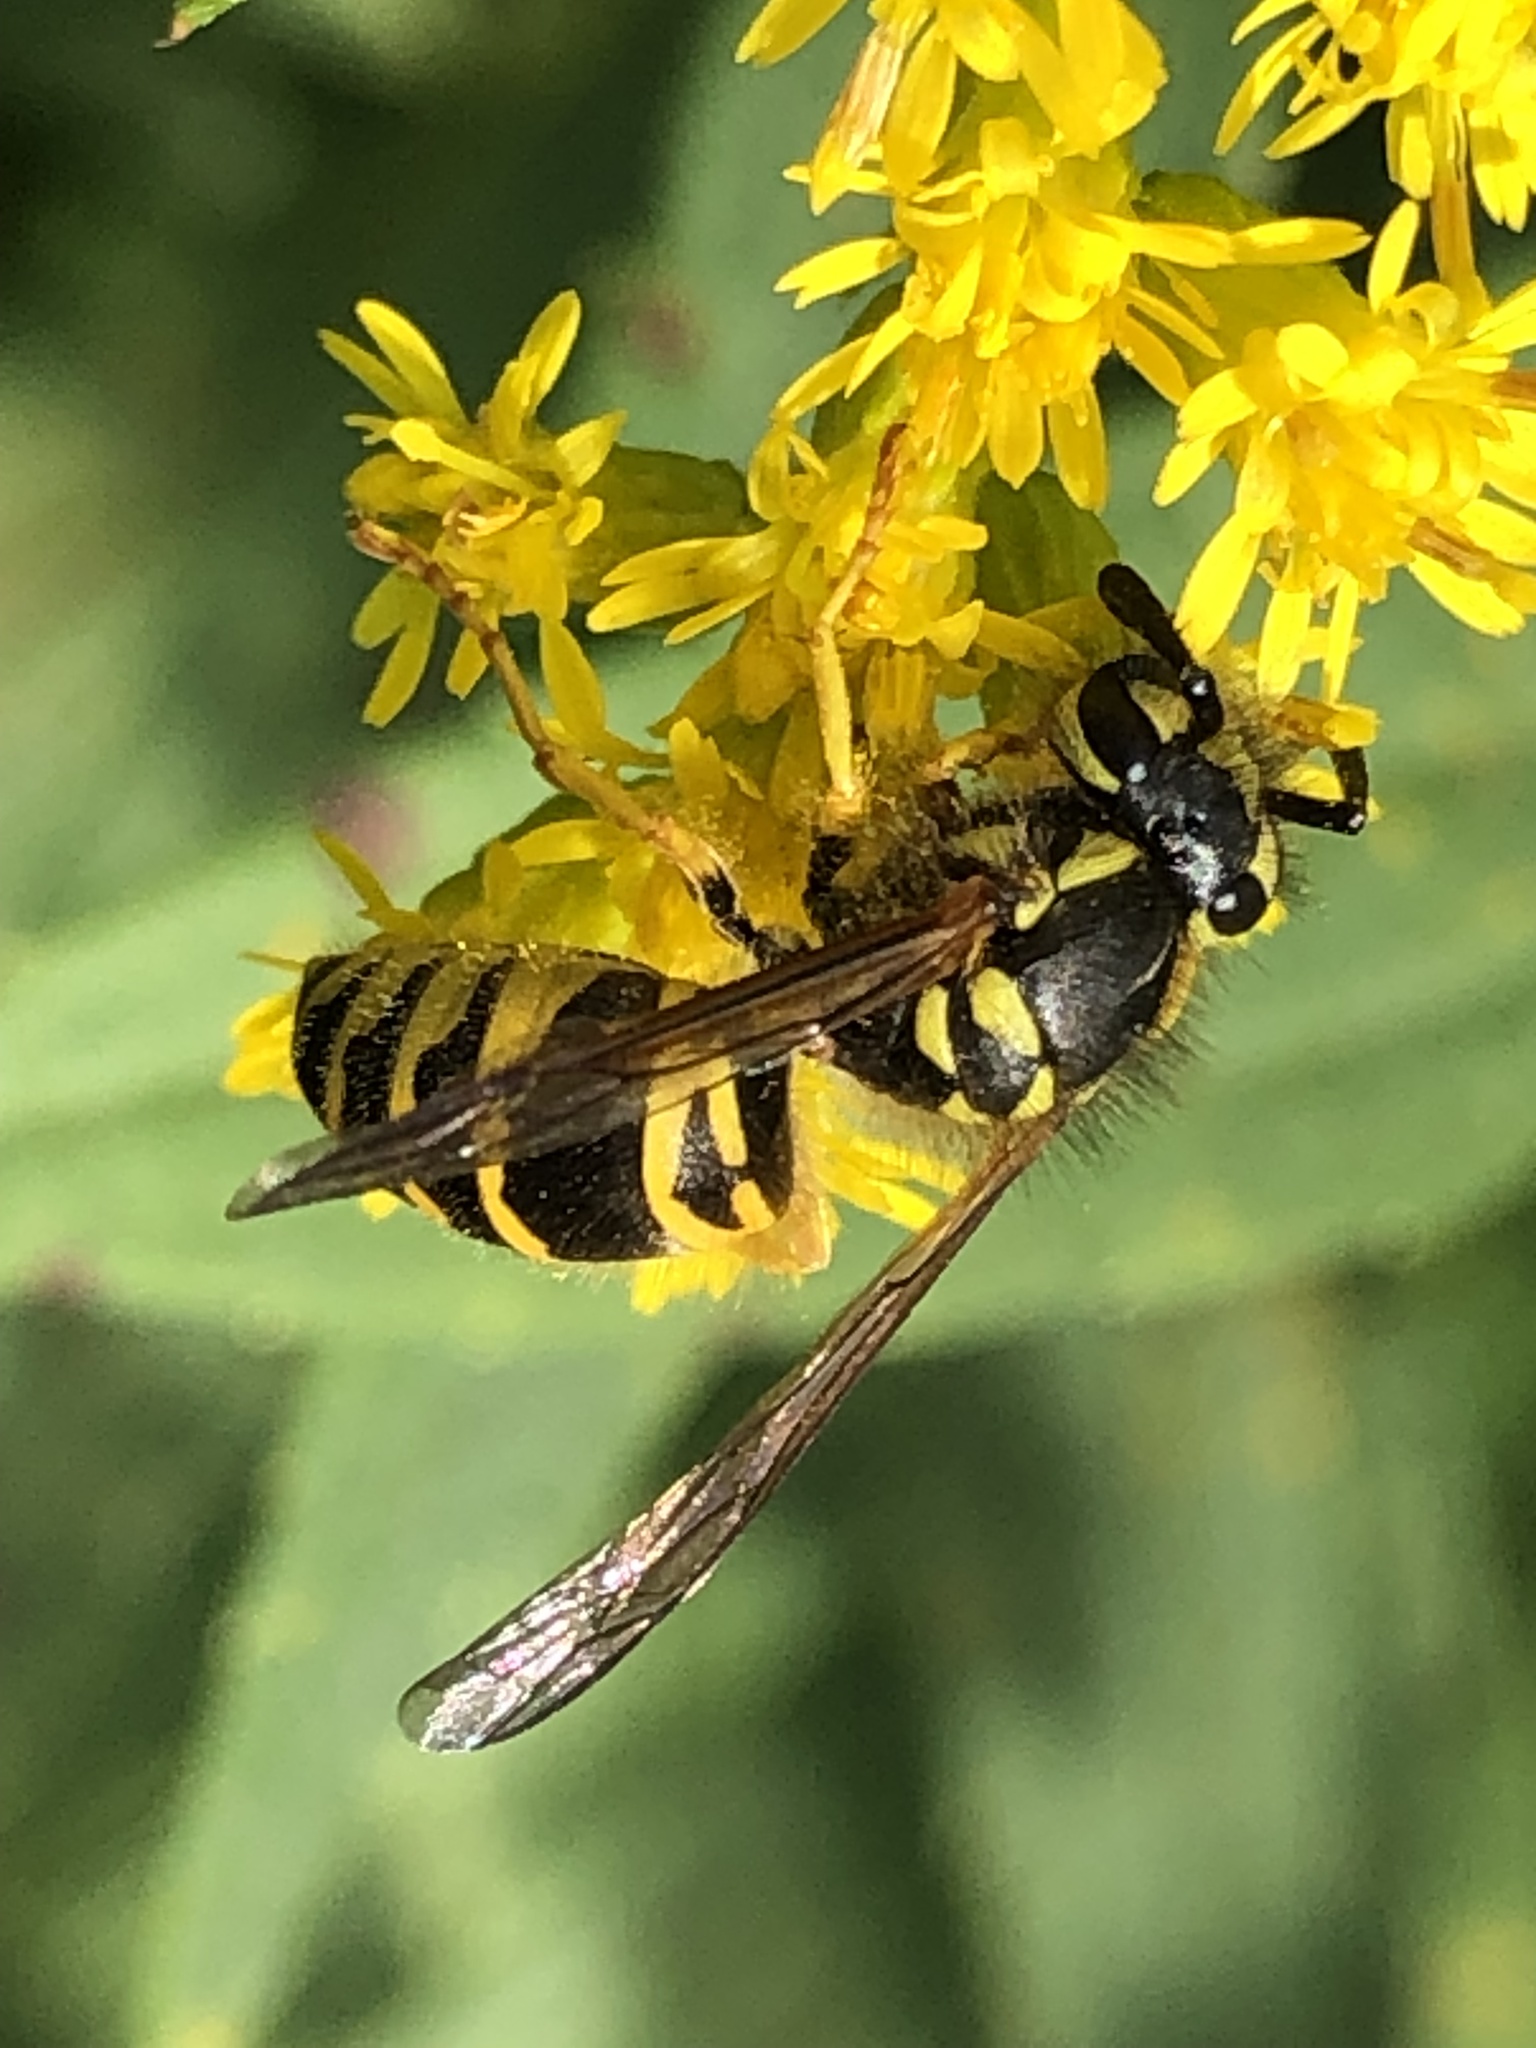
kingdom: Animalia
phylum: Arthropoda
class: Insecta
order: Hymenoptera
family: Vespidae
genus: Vespula
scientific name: Vespula maculifrons
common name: Eastern yellowjacket
